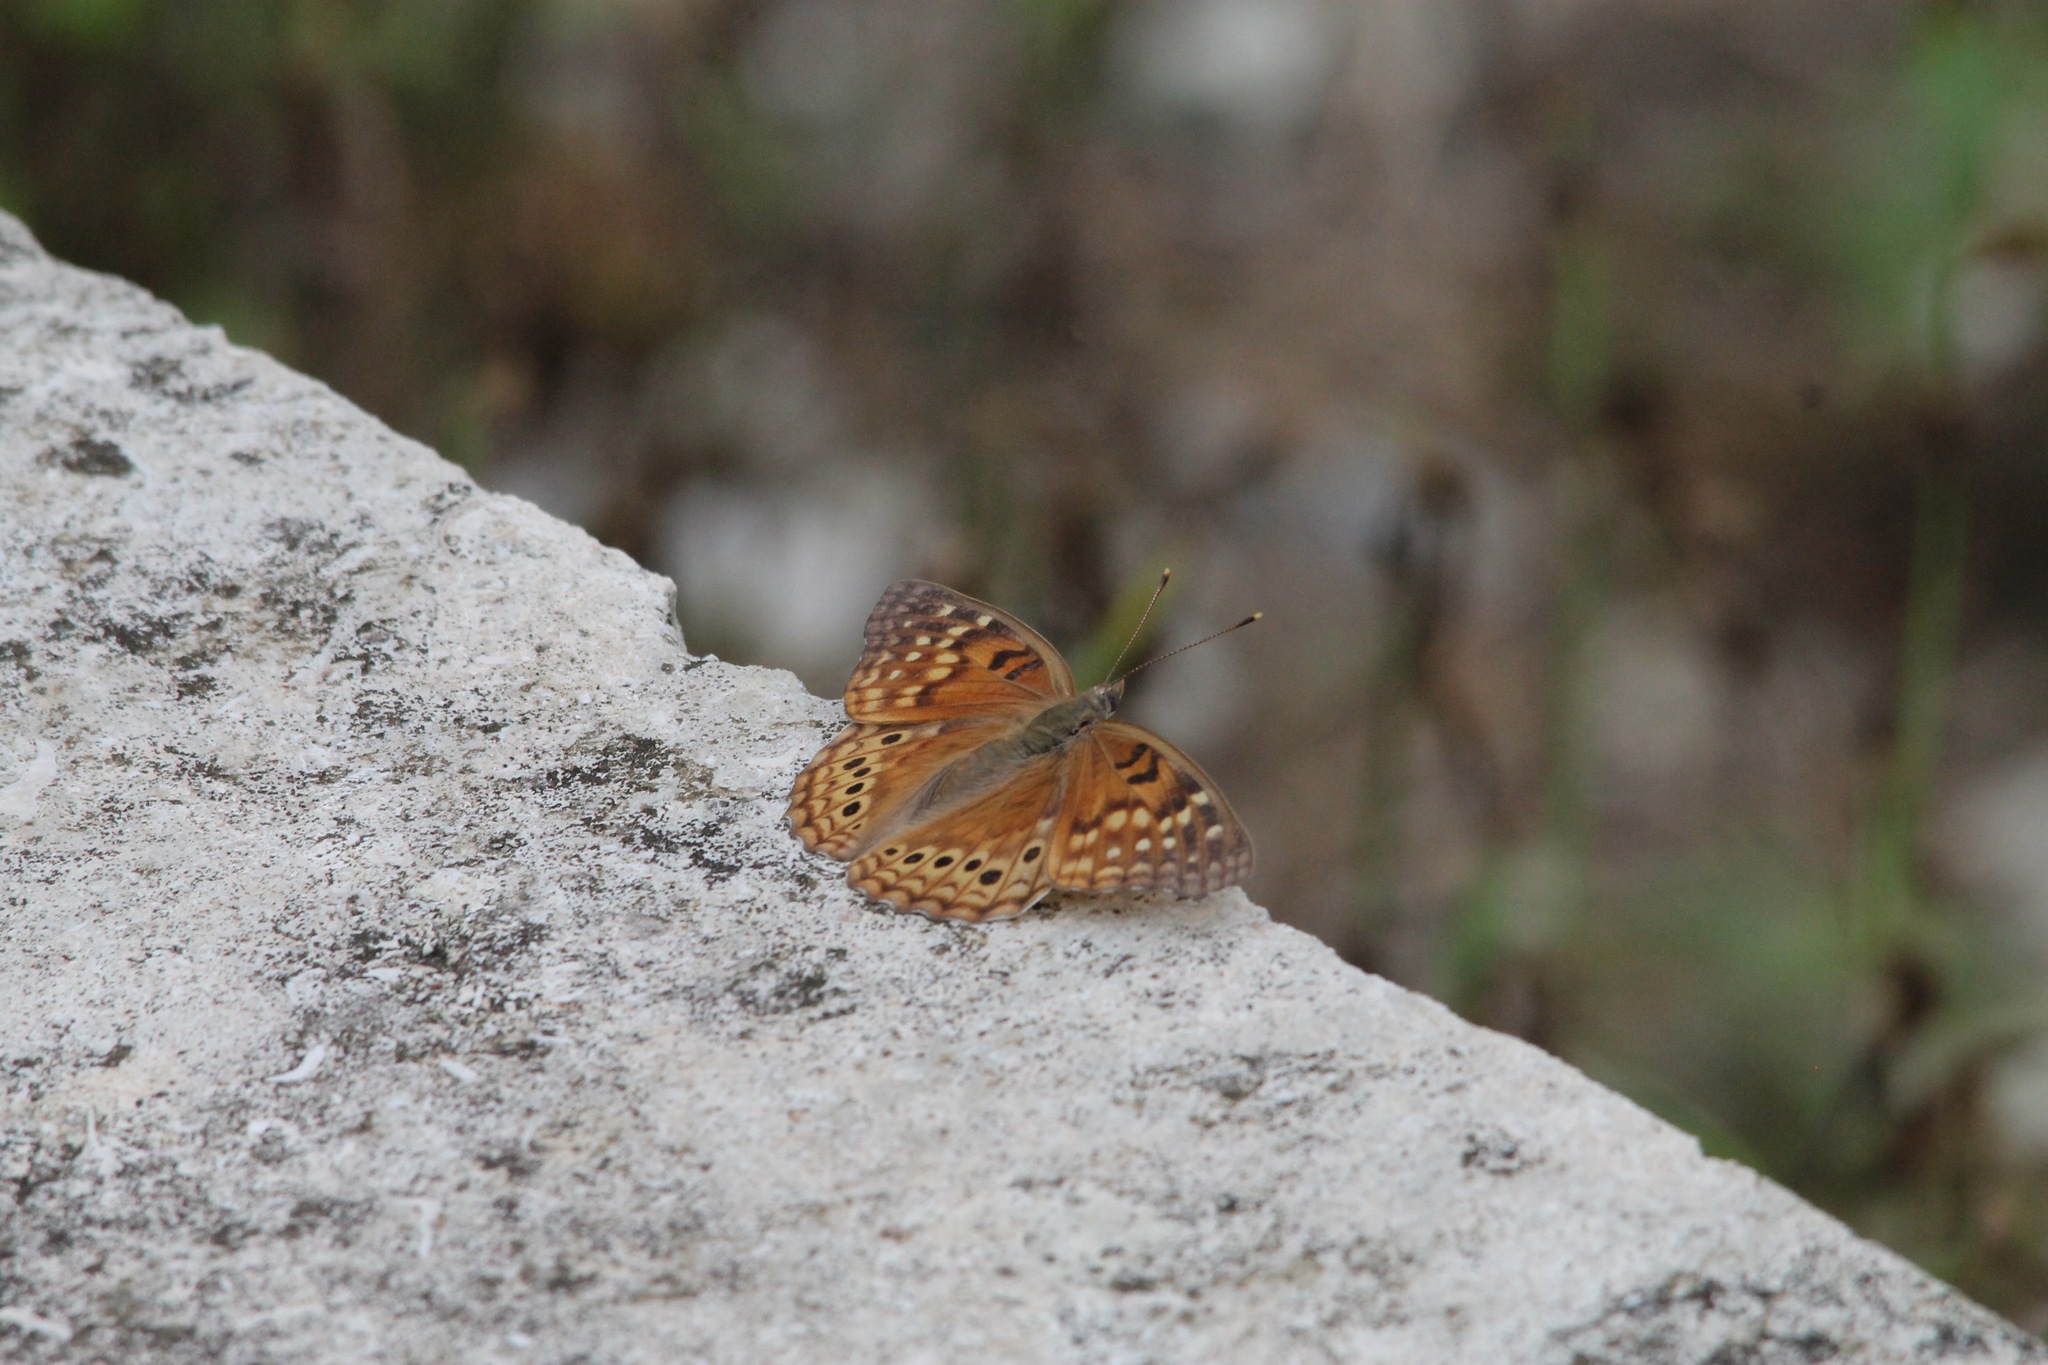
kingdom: Animalia
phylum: Arthropoda
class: Insecta
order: Lepidoptera
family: Nymphalidae
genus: Asterocampa
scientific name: Asterocampa clyton
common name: Tawny emperor
